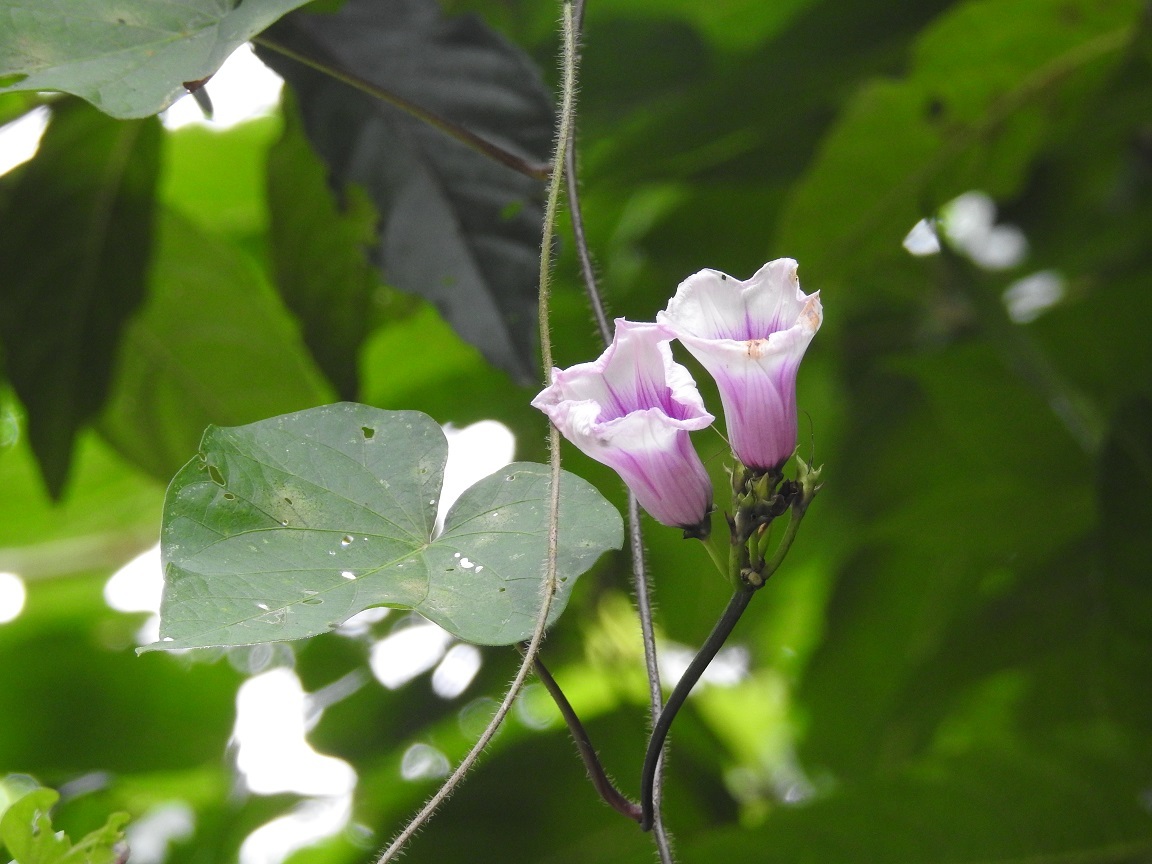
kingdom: Plantae
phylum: Tracheophyta
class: Magnoliopsida
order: Solanales
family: Convolvulaceae
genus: Ipomoea
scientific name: Ipomoea batatas
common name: Sweet-potato
